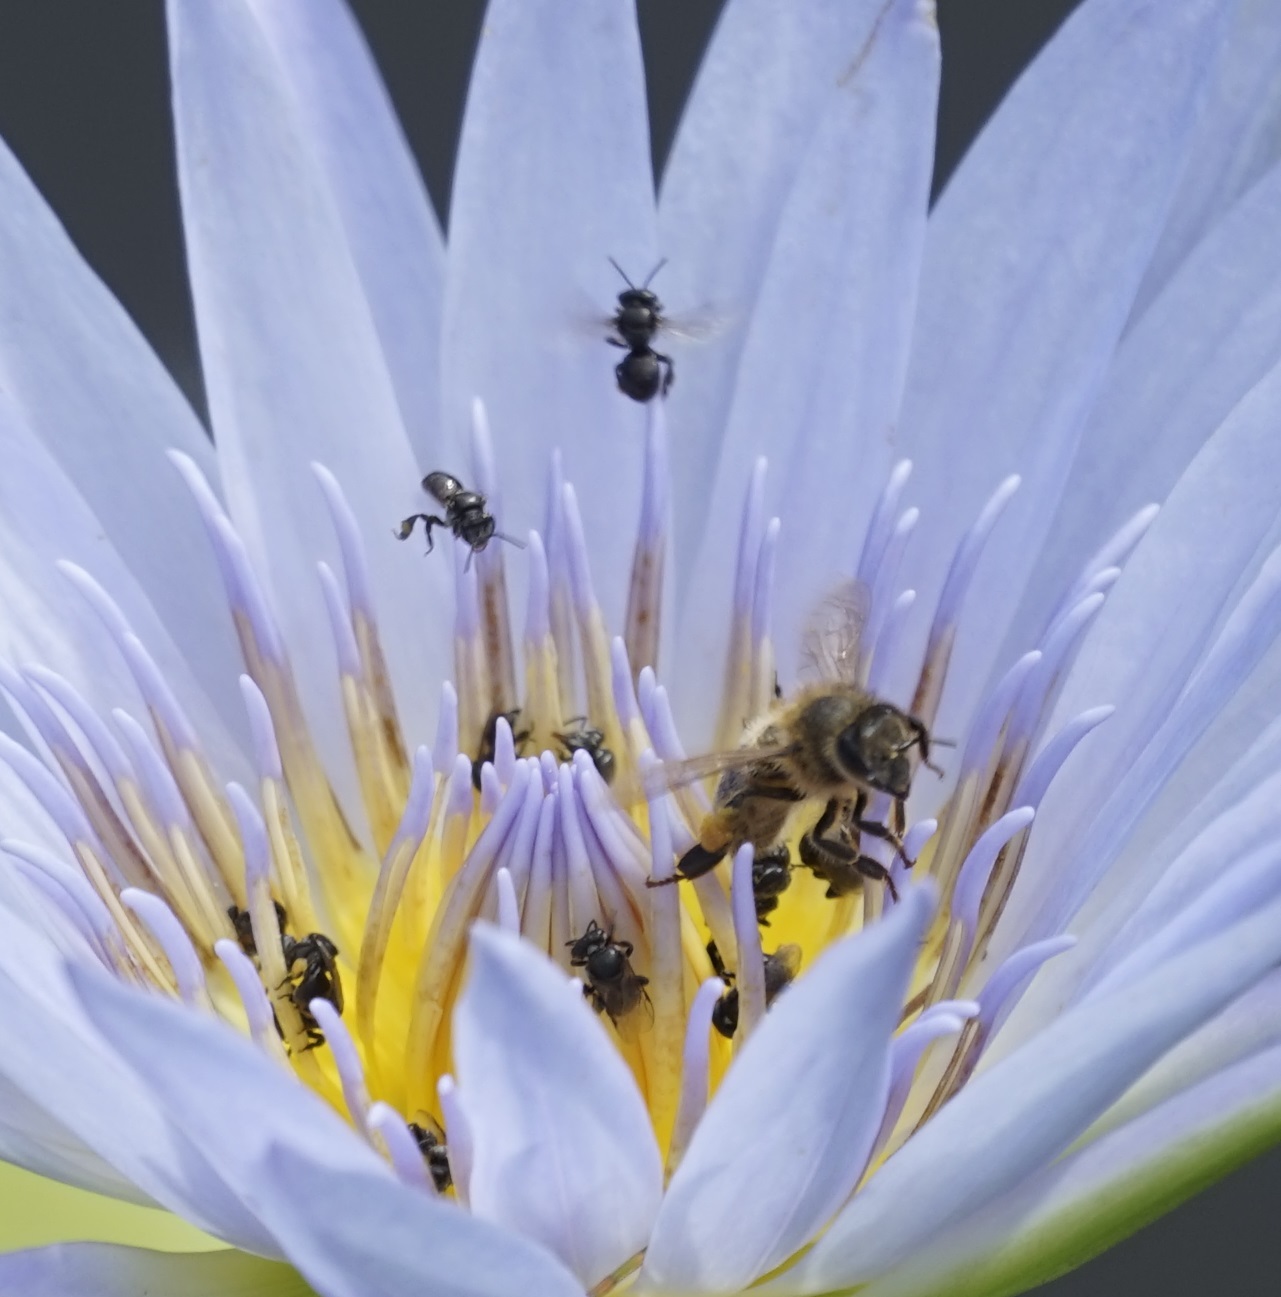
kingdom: Animalia
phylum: Arthropoda
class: Insecta
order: Hymenoptera
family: Apidae
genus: Apis
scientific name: Apis mellifera
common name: Honey bee
